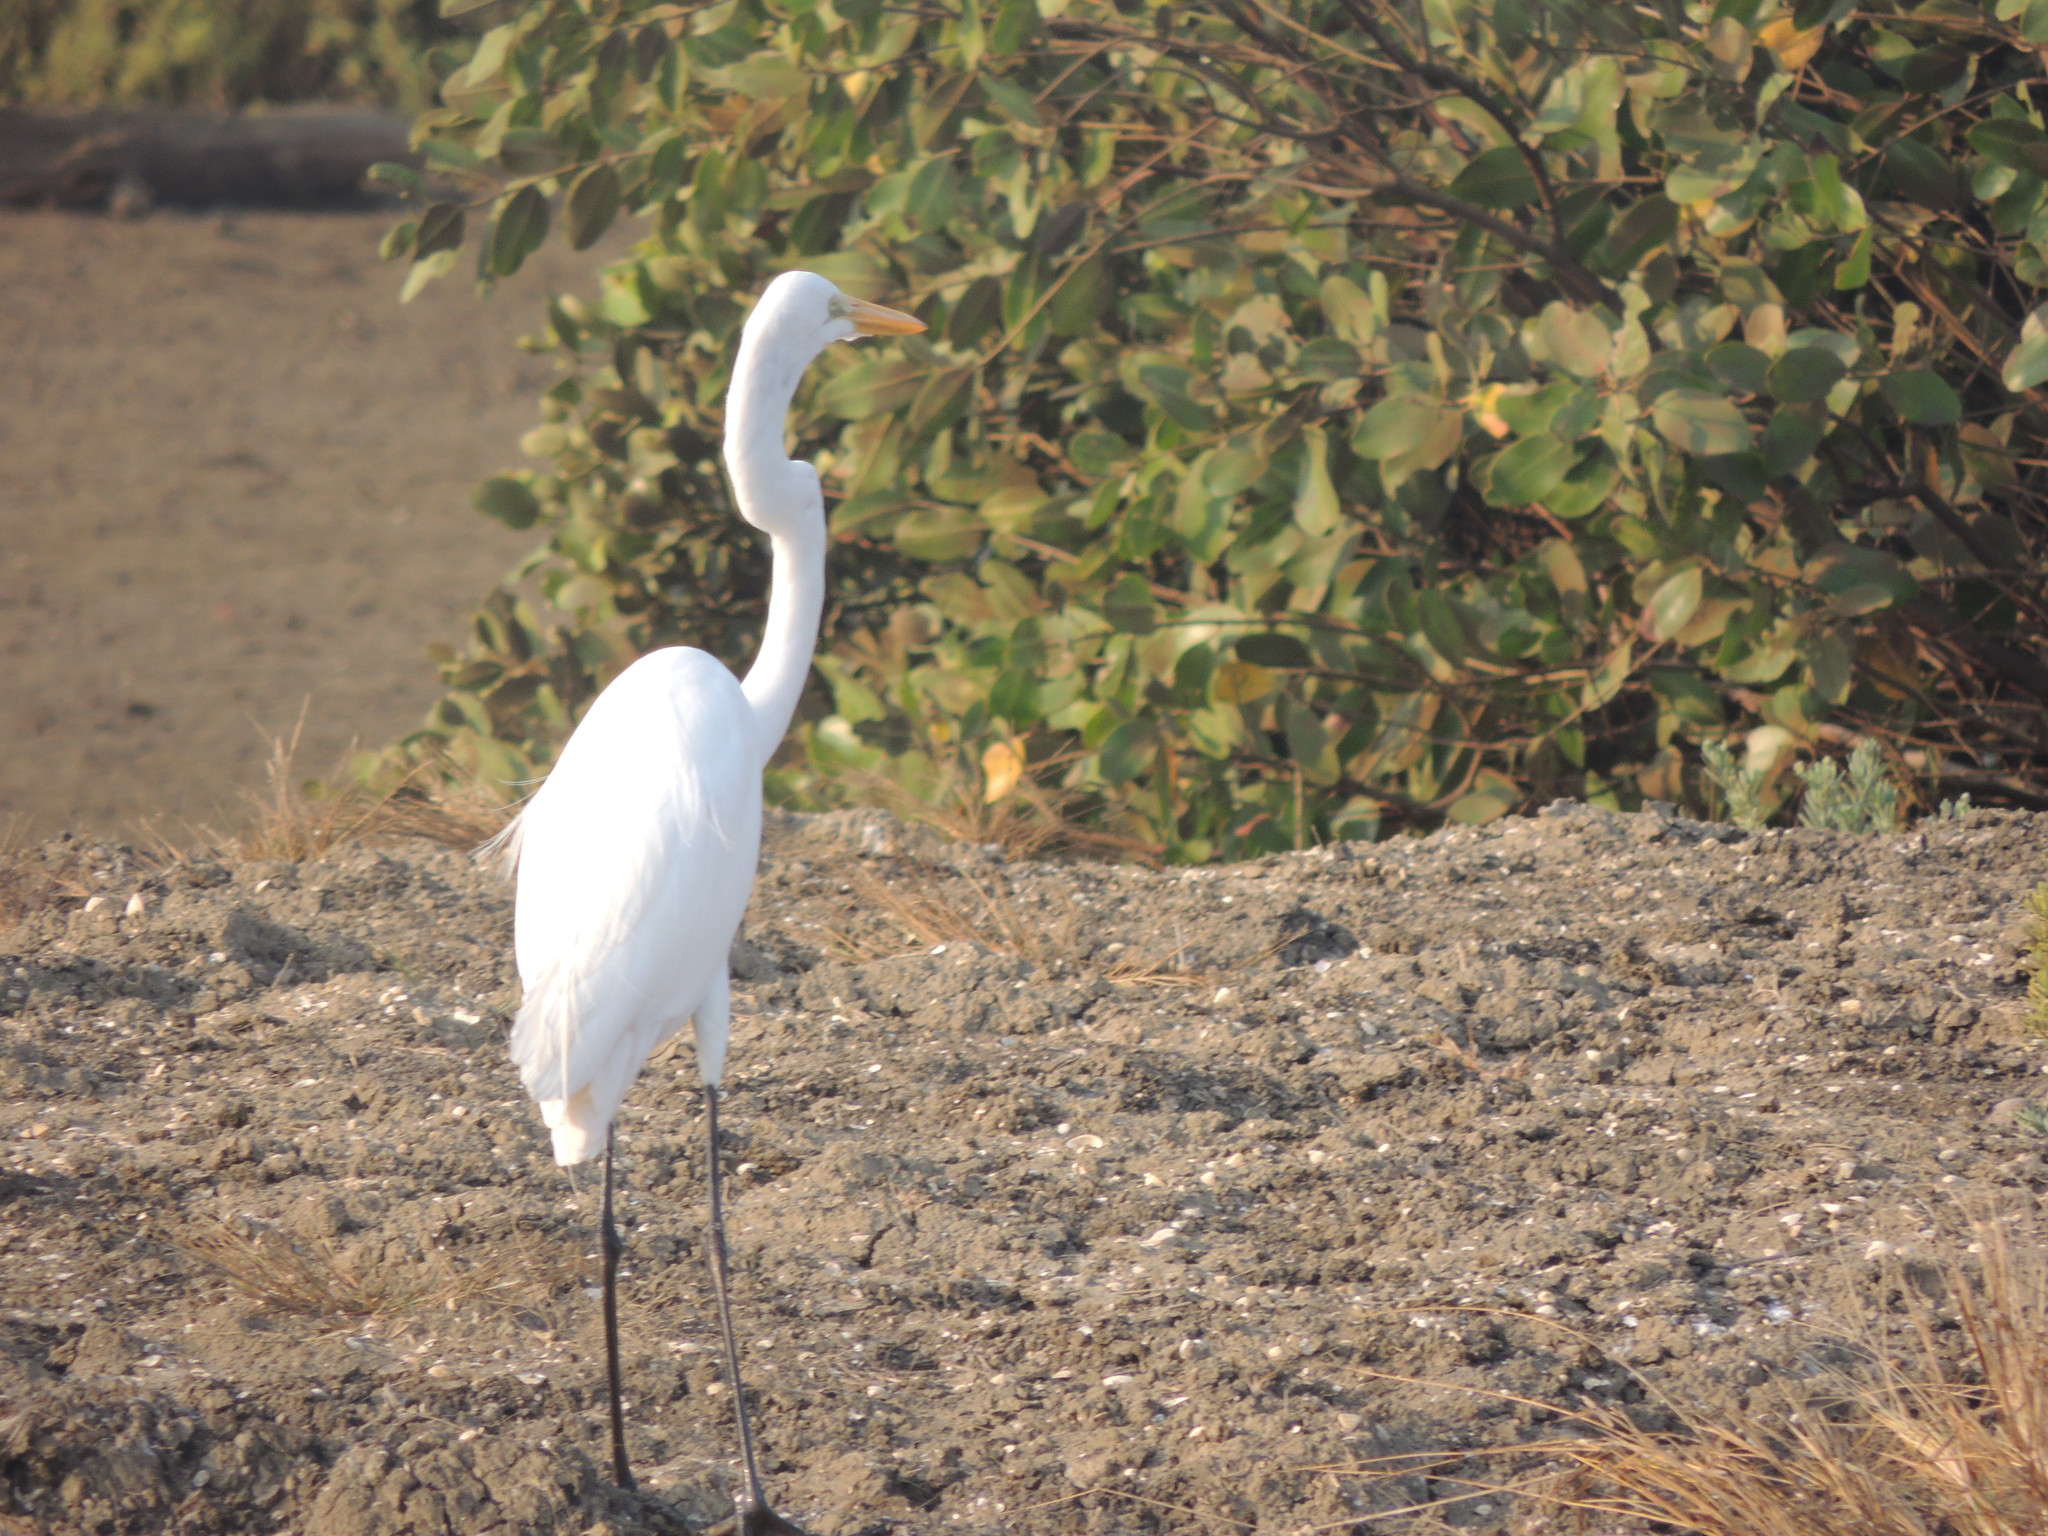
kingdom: Animalia
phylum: Chordata
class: Aves
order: Pelecaniformes
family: Ardeidae
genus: Ardea
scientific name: Ardea alba
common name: Great egret
